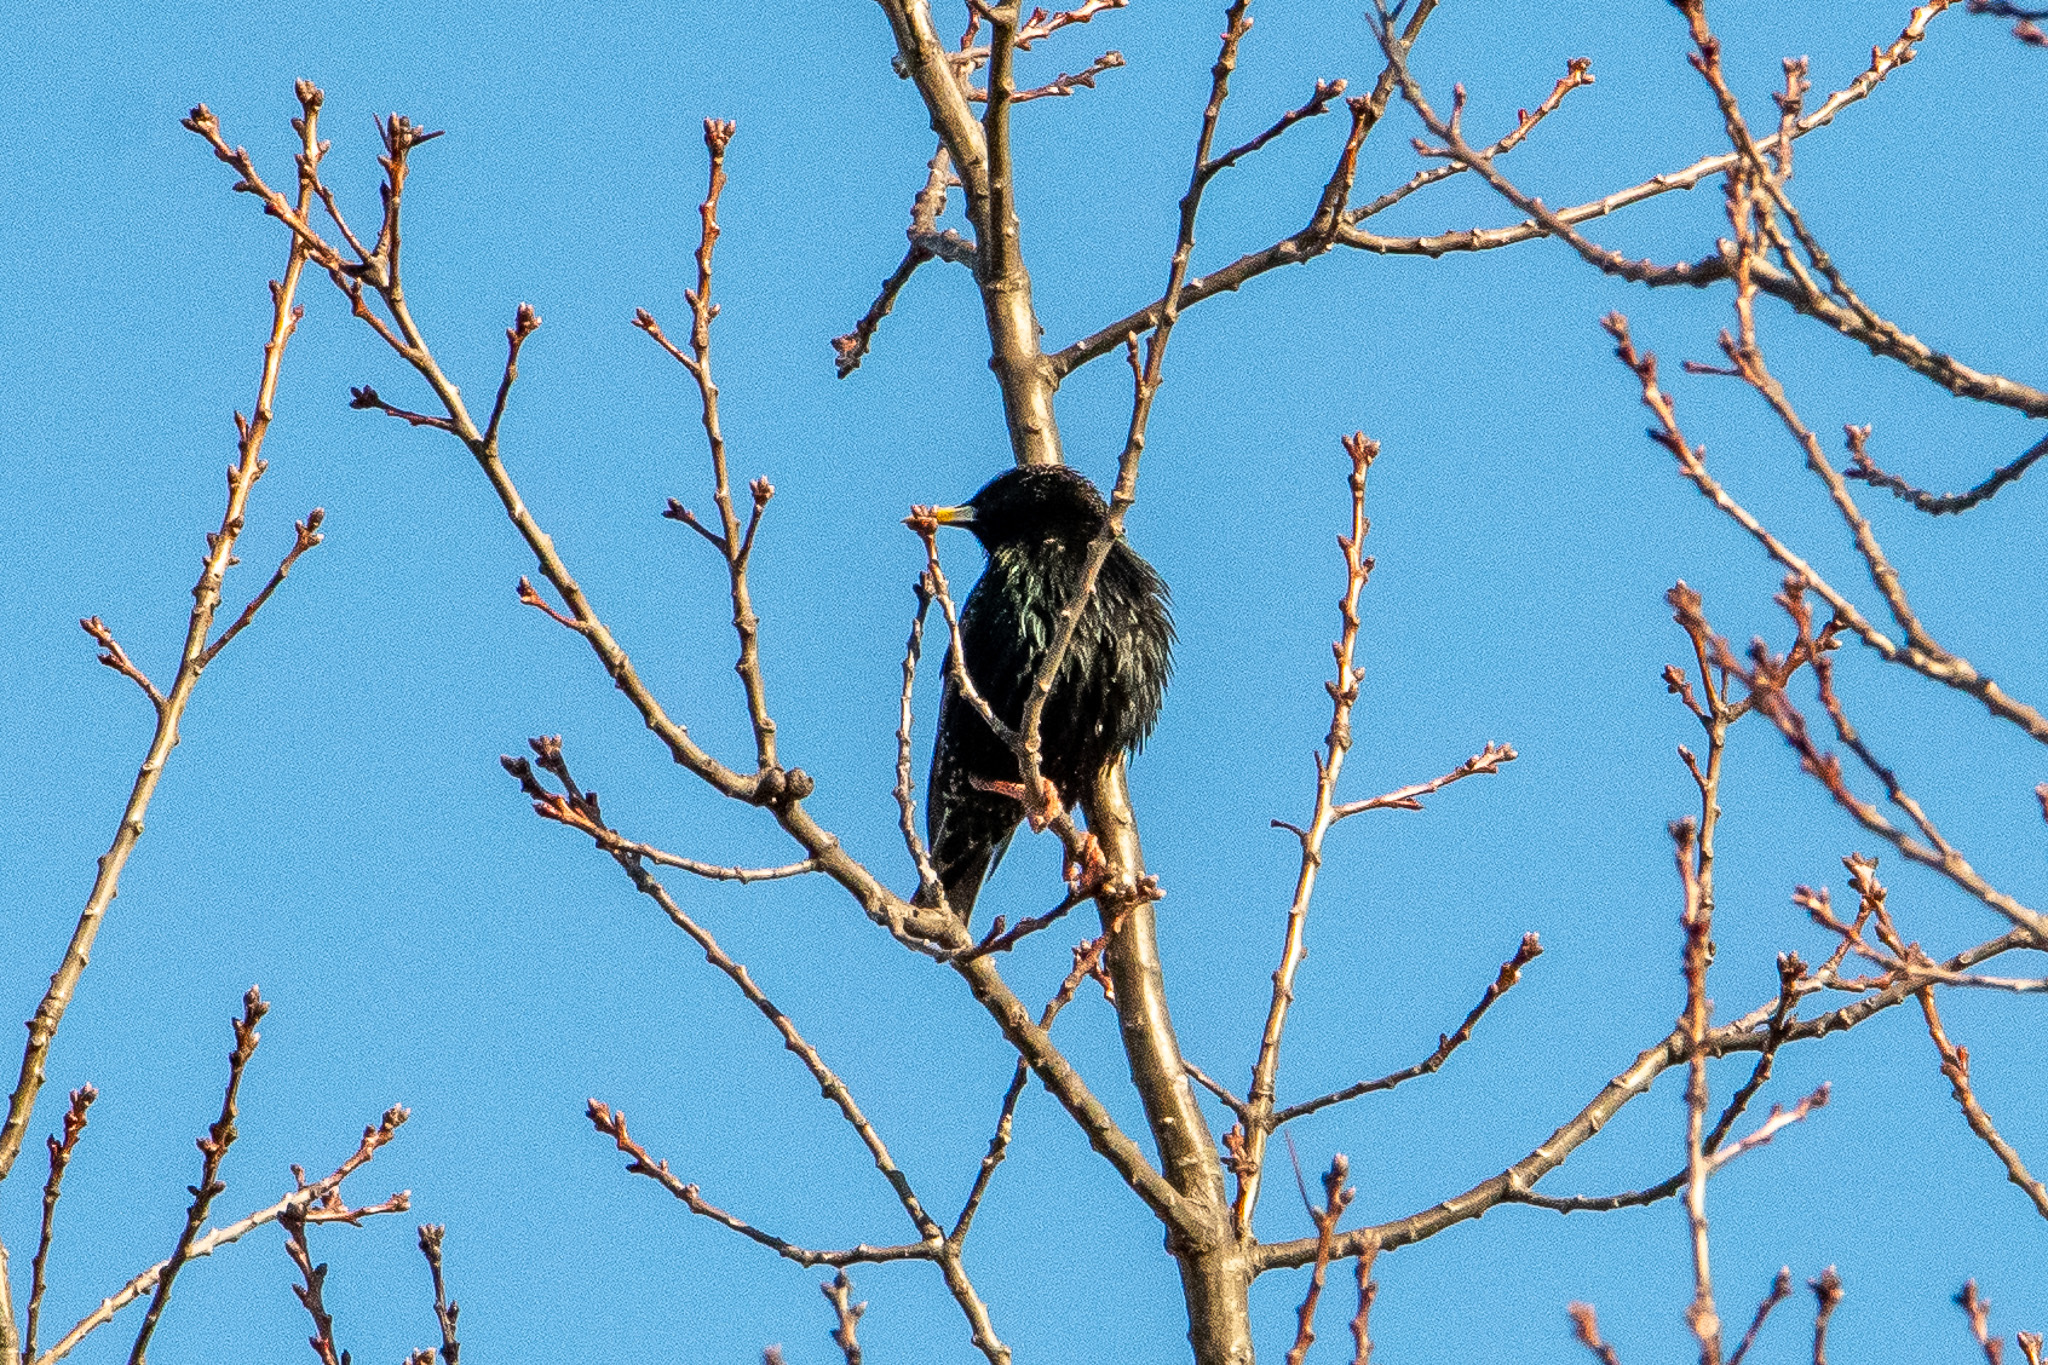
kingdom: Animalia
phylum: Chordata
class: Aves
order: Passeriformes
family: Sturnidae
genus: Sturnus
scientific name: Sturnus vulgaris
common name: Common starling
